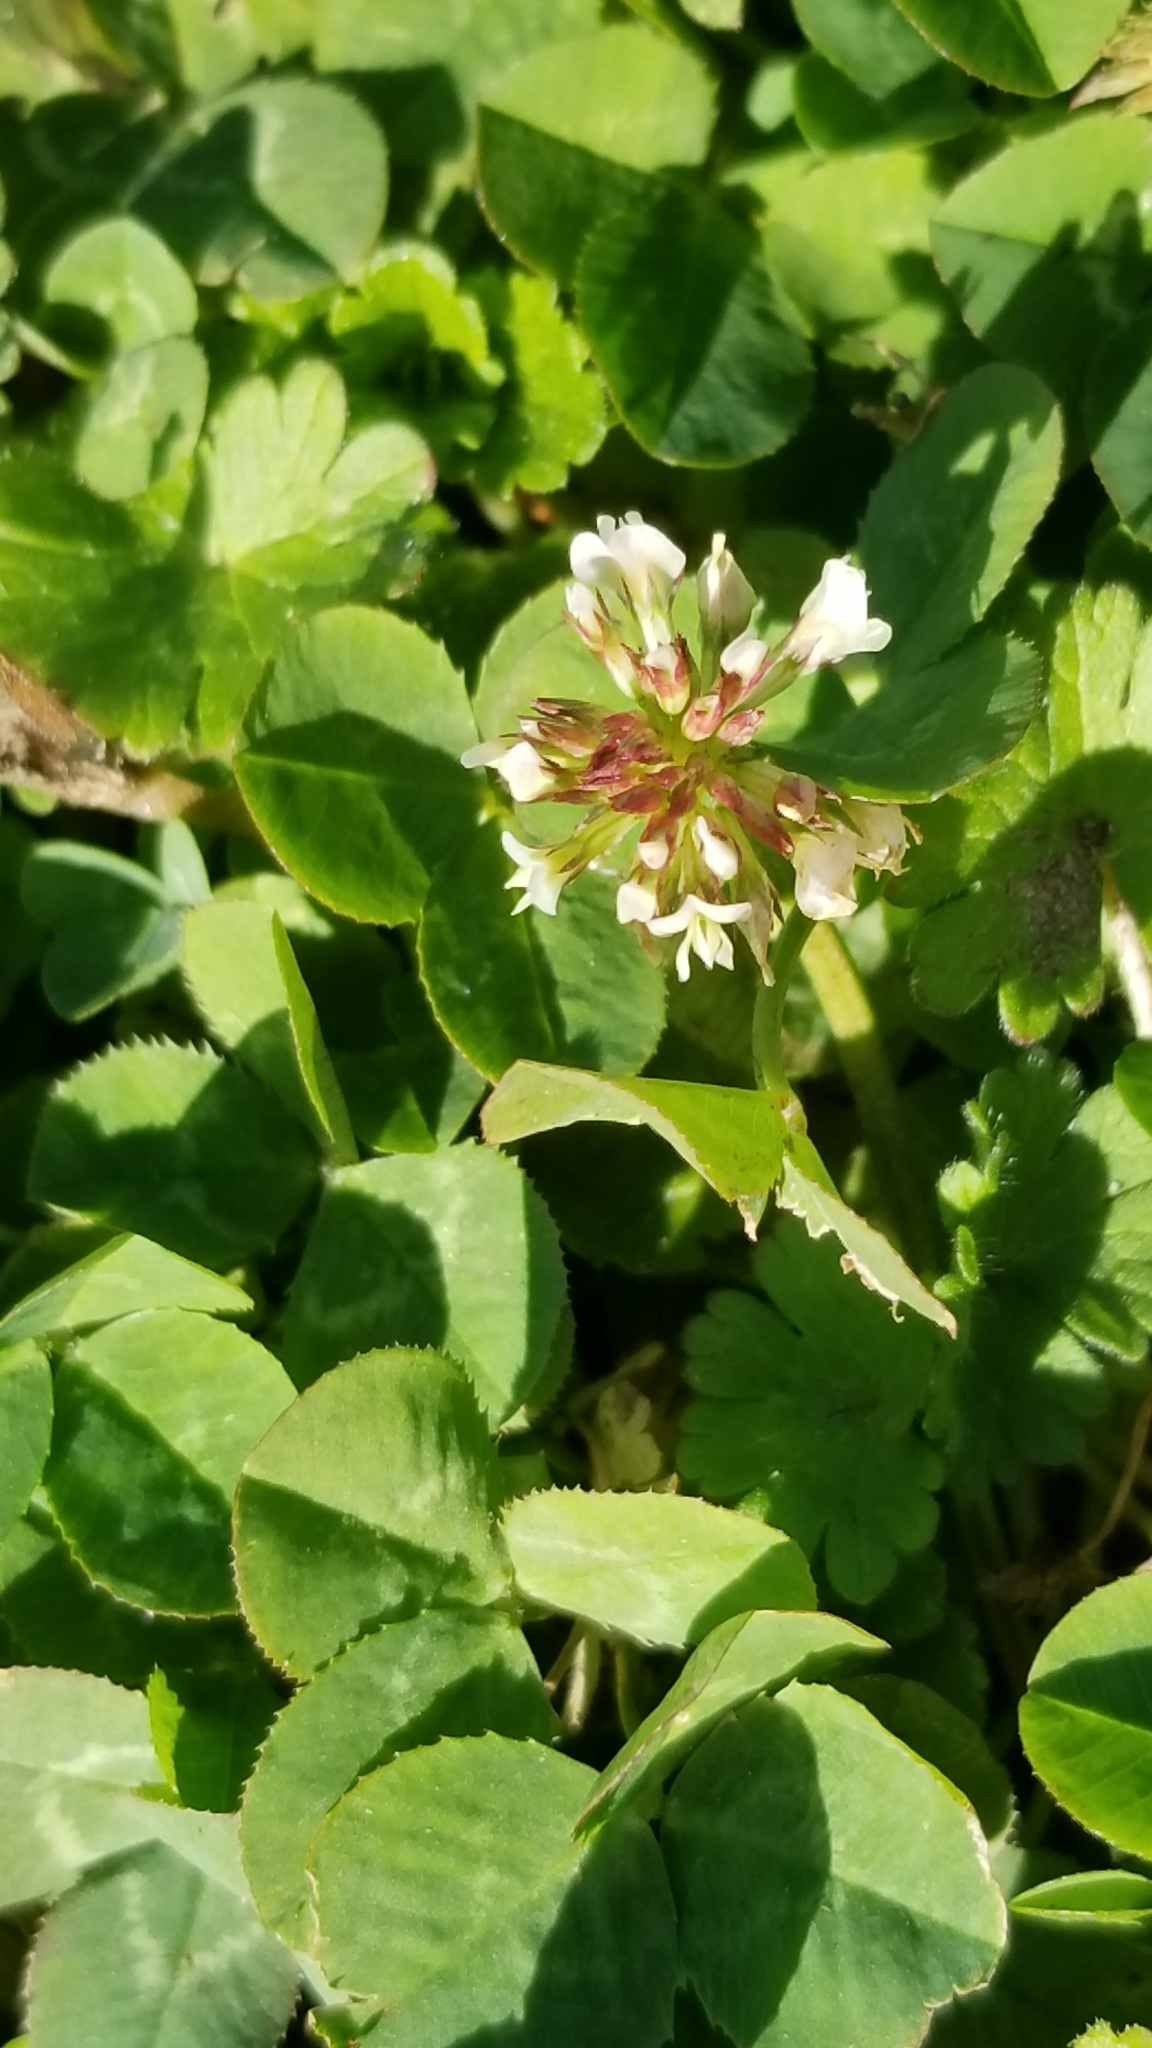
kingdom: Plantae
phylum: Tracheophyta
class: Magnoliopsida
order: Fabales
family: Fabaceae
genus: Trifolium
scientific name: Trifolium repens
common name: White clover
